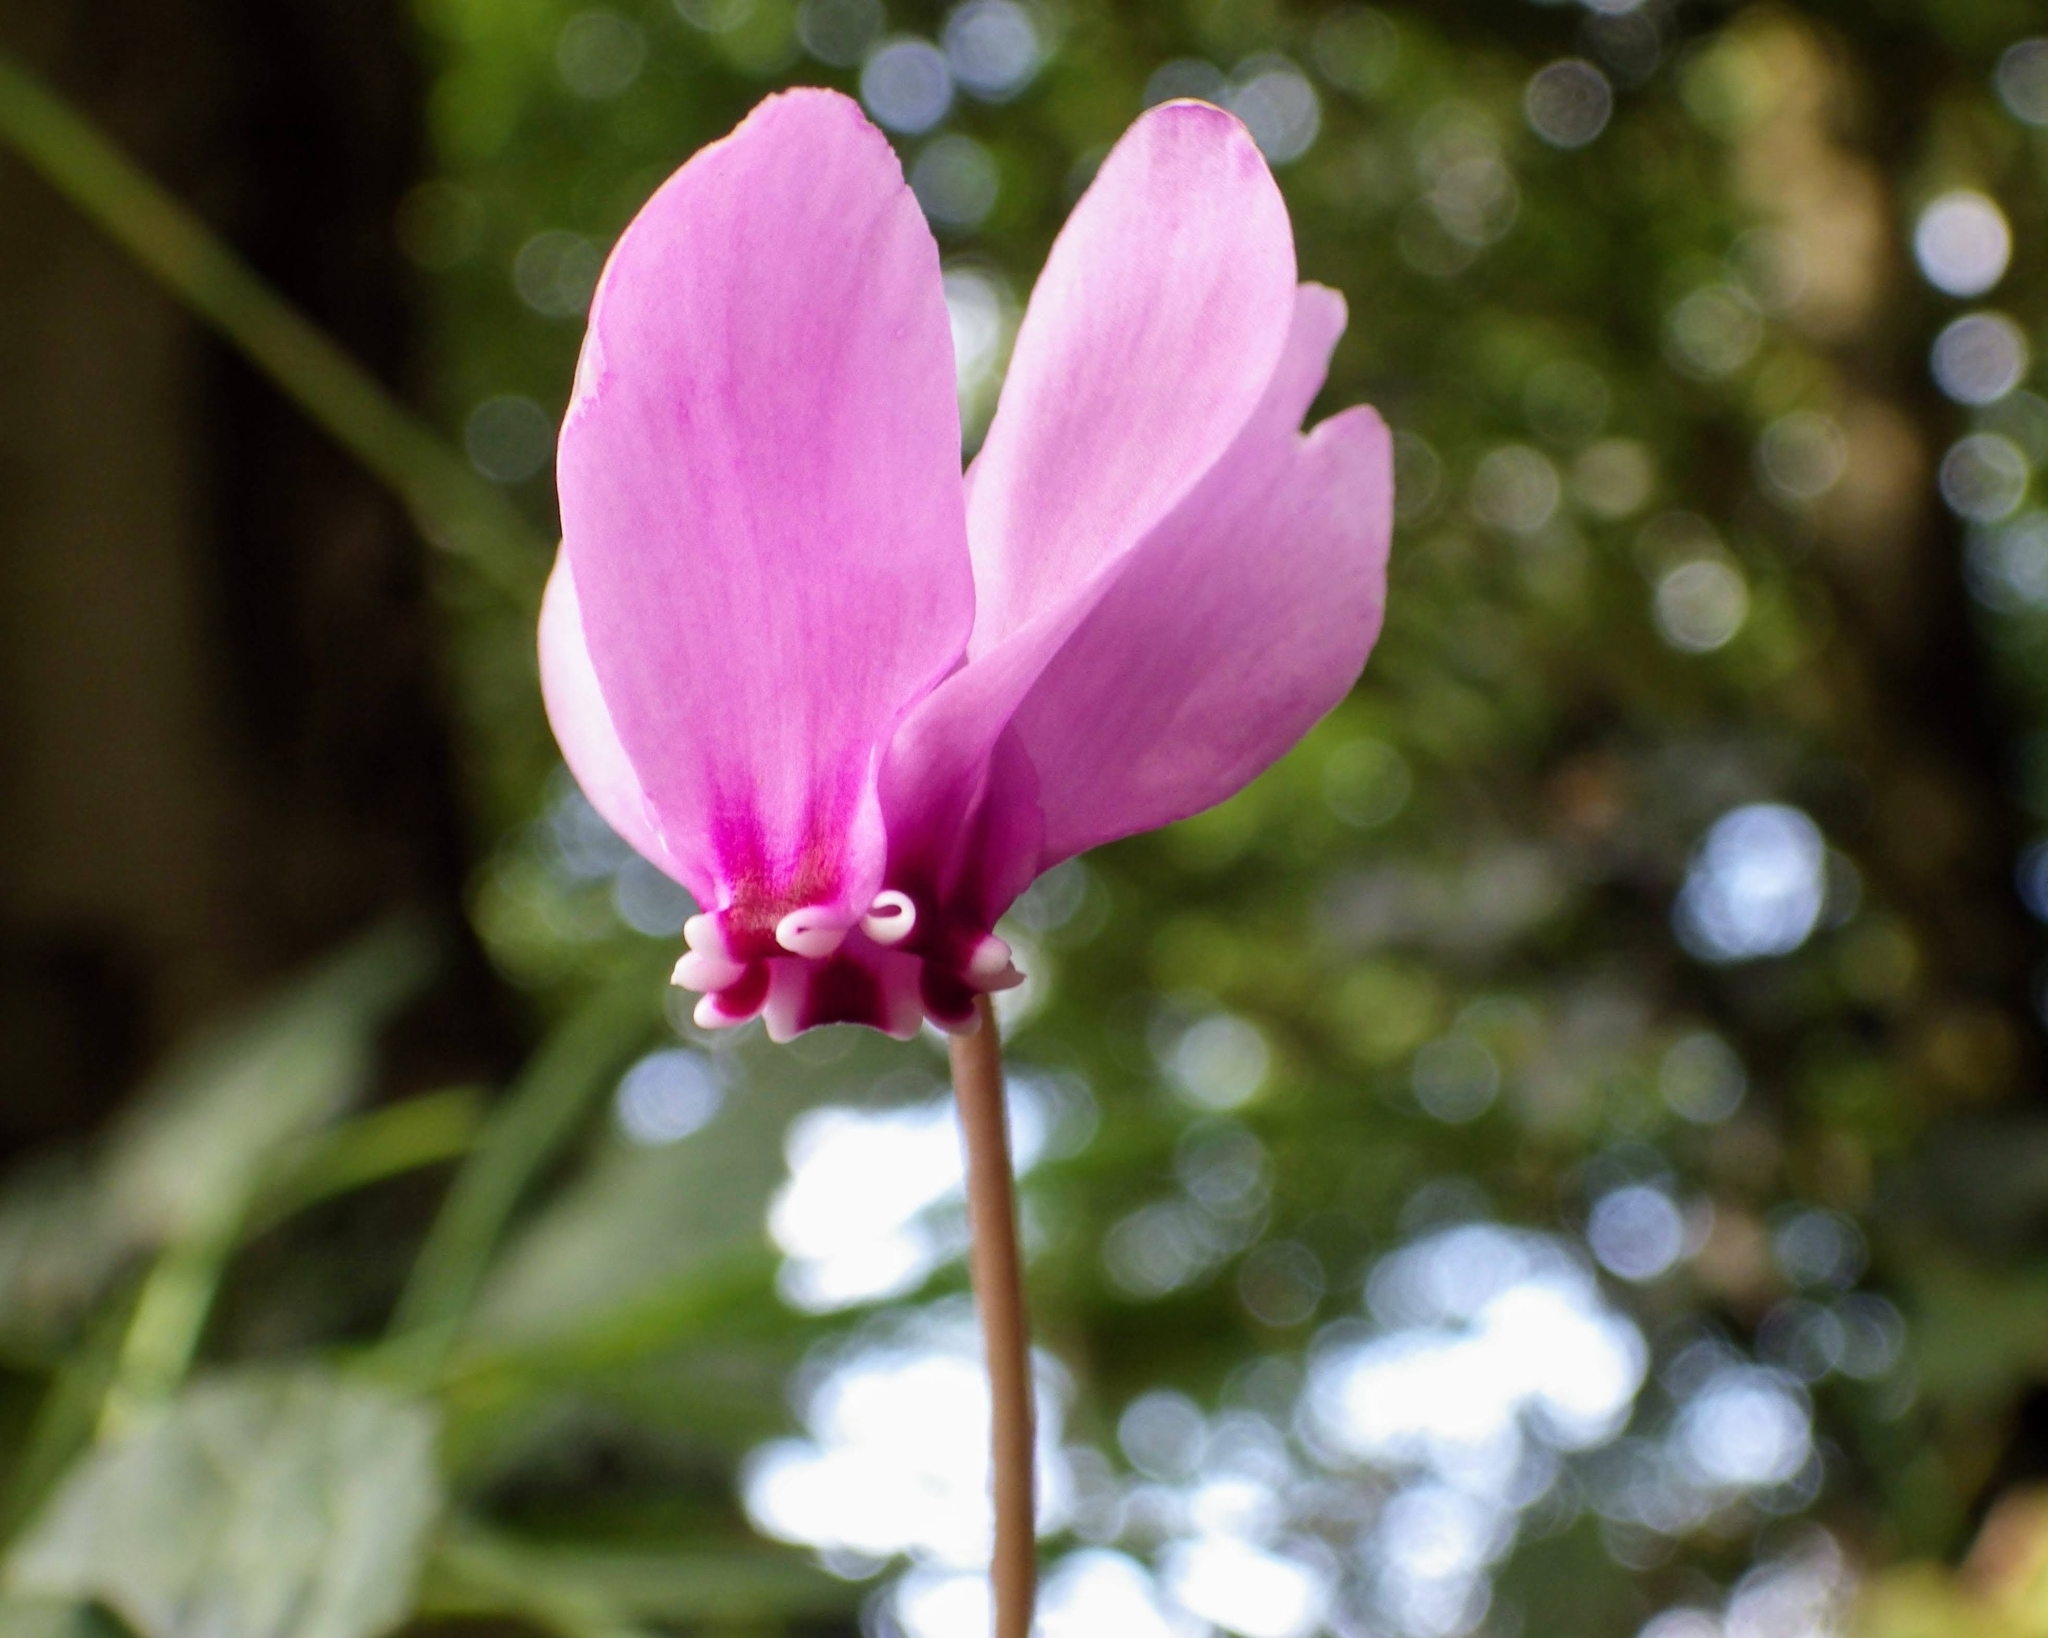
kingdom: Plantae
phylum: Tracheophyta
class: Magnoliopsida
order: Ericales
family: Primulaceae
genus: Cyclamen
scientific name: Cyclamen hederifolium
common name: Sowbread
